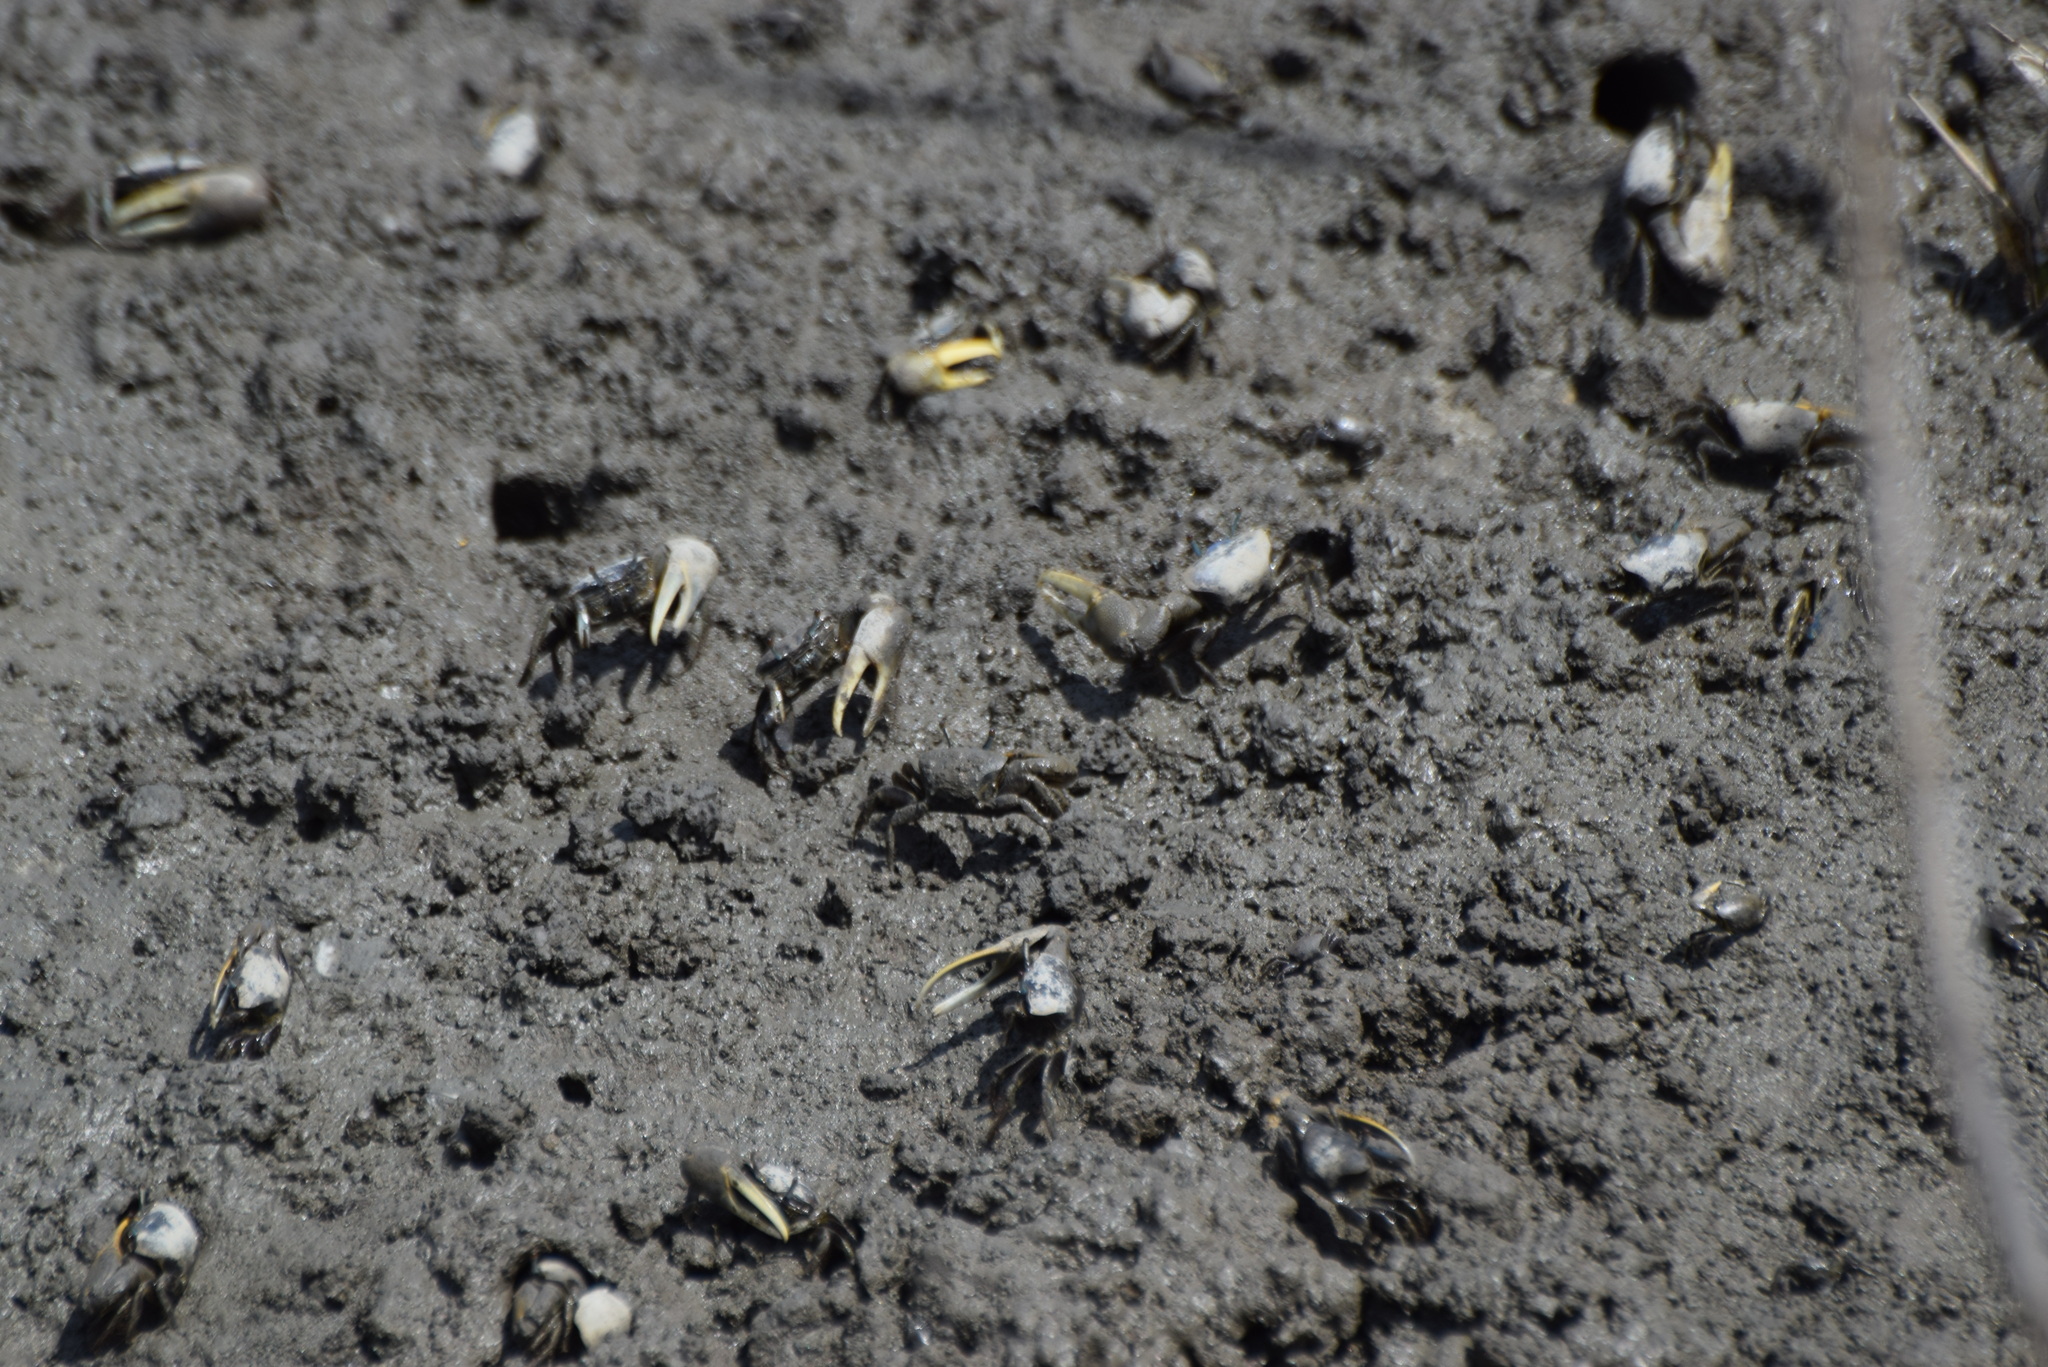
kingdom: Animalia
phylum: Arthropoda
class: Malacostraca
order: Decapoda
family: Ocypodidae
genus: Minuca
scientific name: Minuca pugnax
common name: Mud fiddler crab
